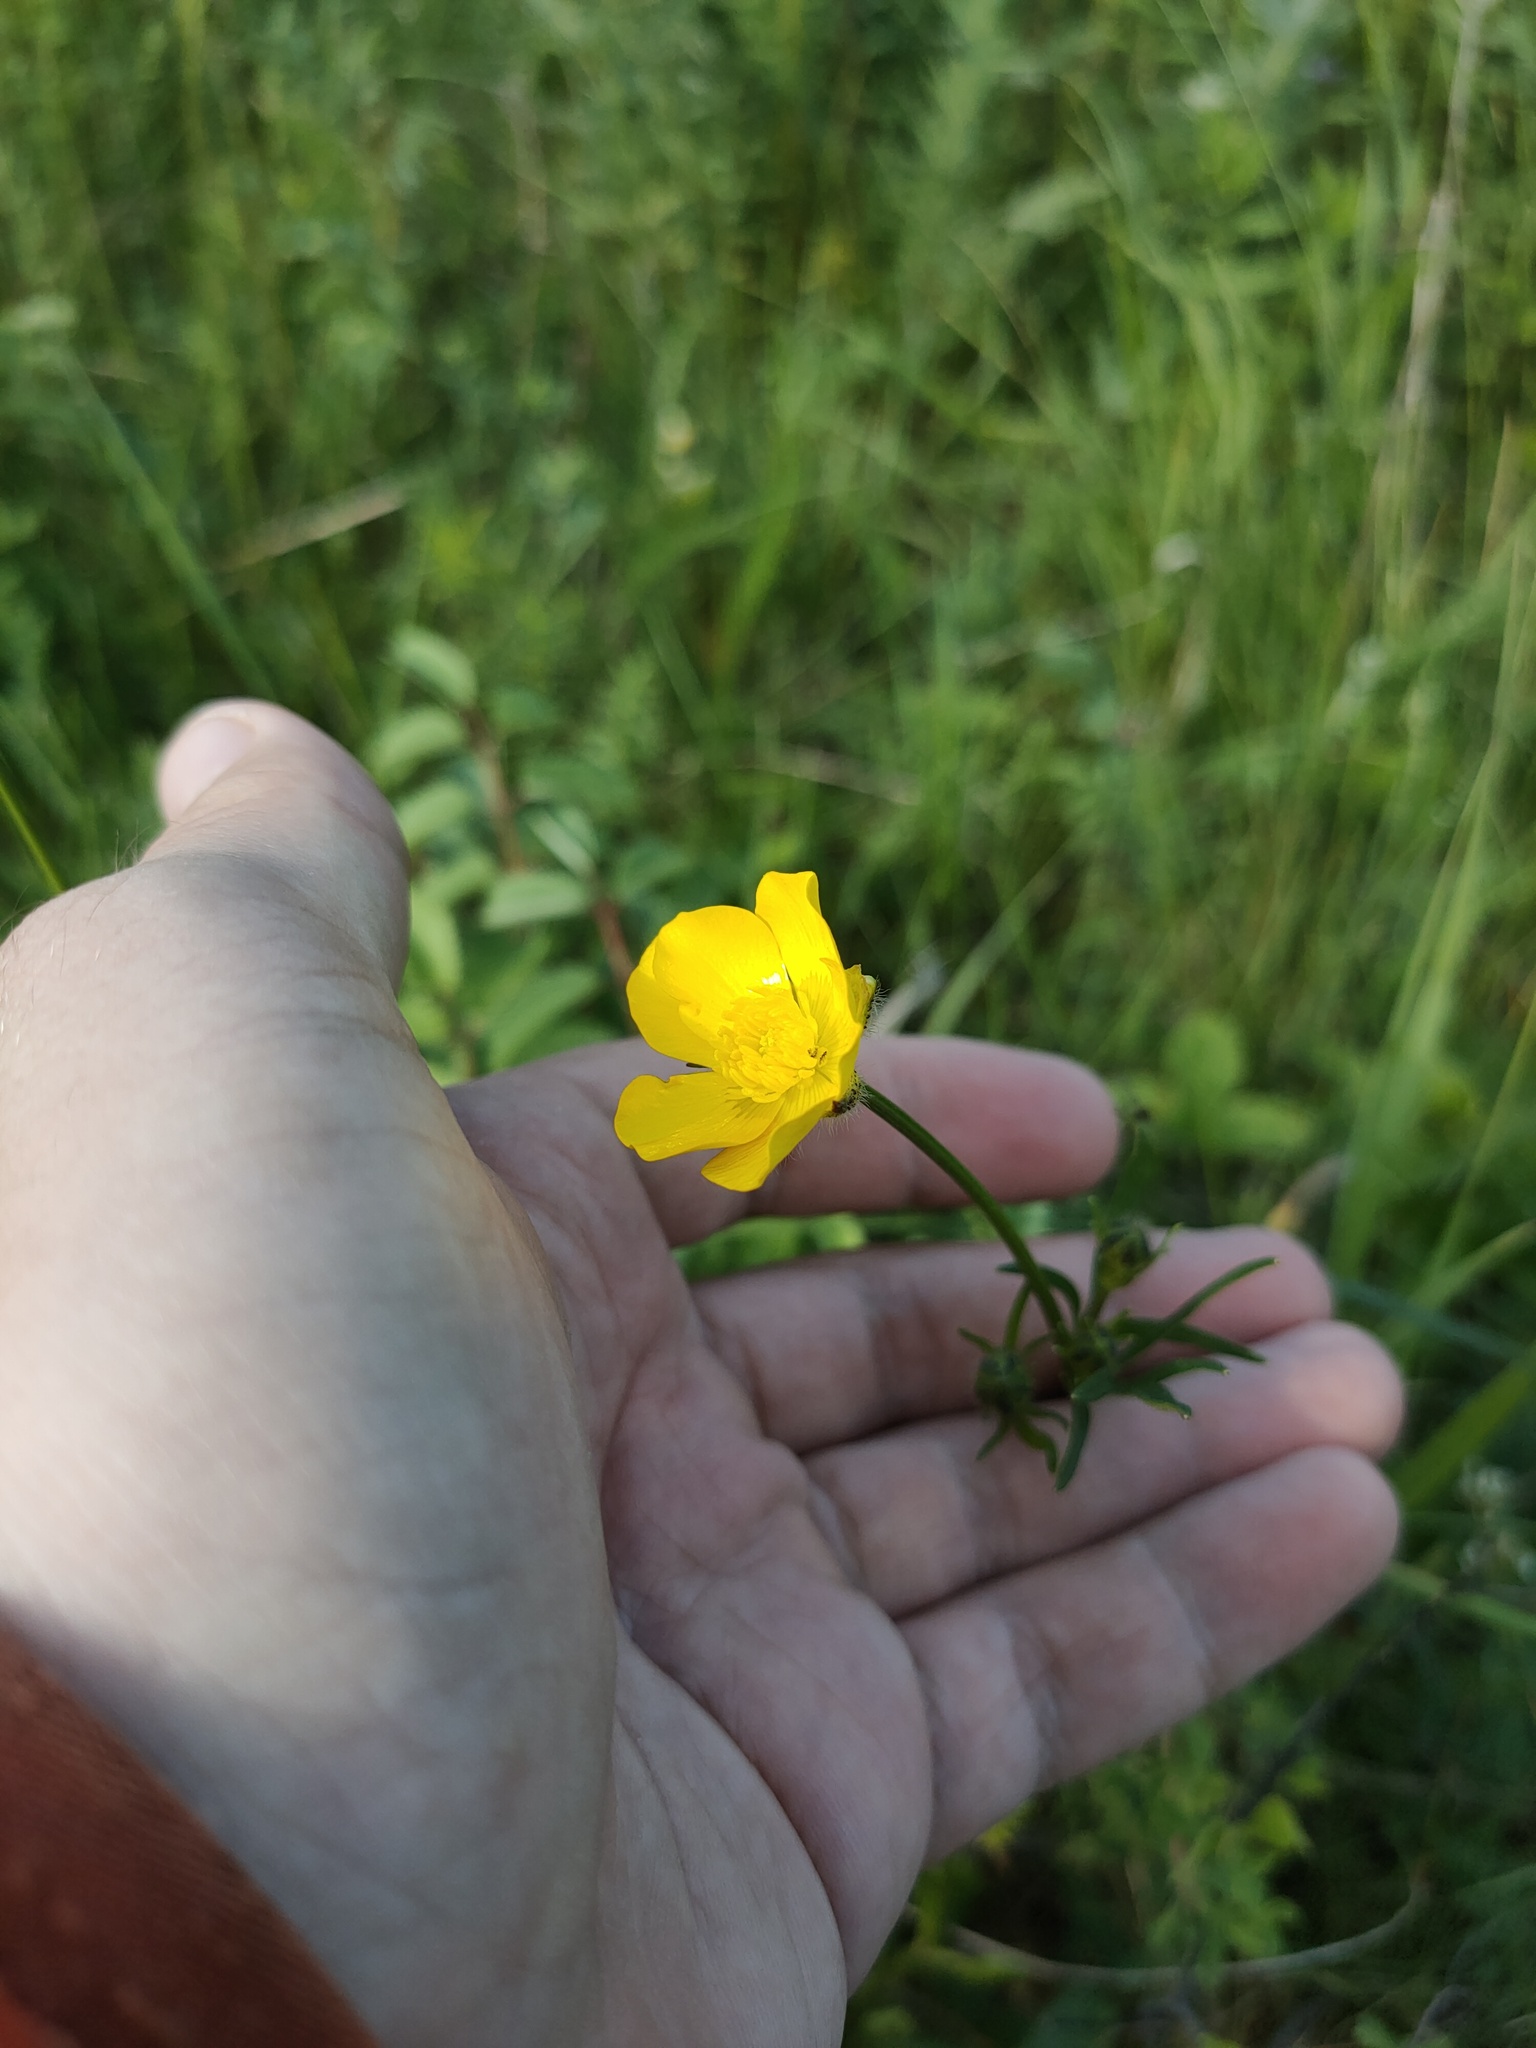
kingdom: Plantae
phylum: Tracheophyta
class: Magnoliopsida
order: Ranunculales
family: Ranunculaceae
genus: Ranunculus
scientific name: Ranunculus polyanthemos
